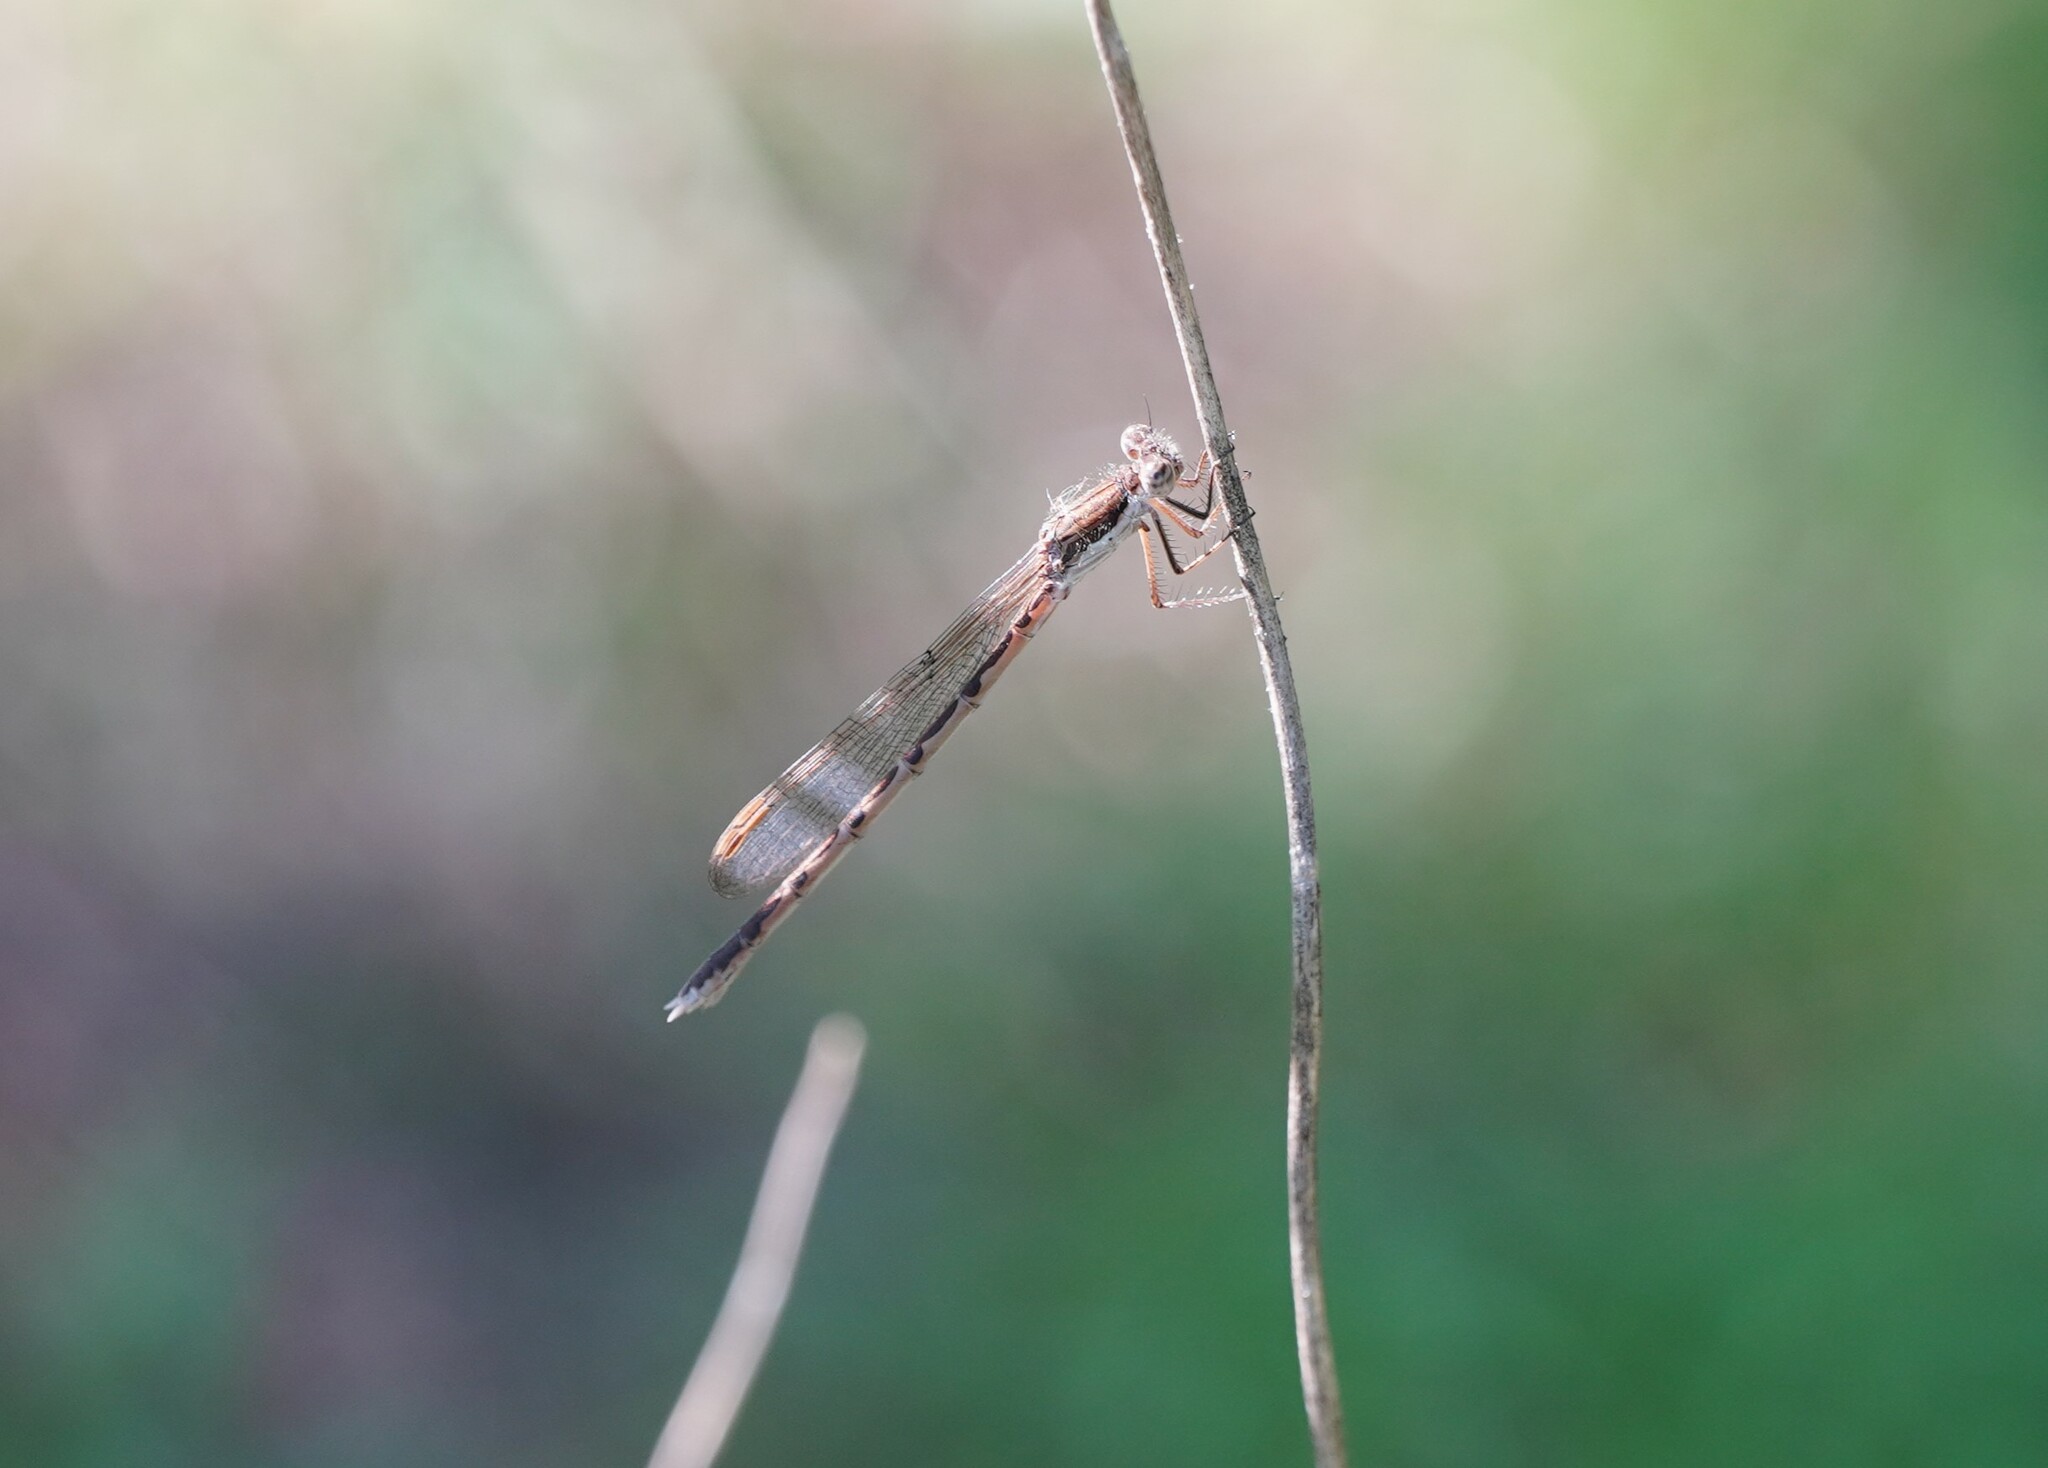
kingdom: Animalia
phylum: Arthropoda
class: Insecta
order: Odonata
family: Lestidae
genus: Sympecma
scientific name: Sympecma fusca
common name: Common winter damsel
